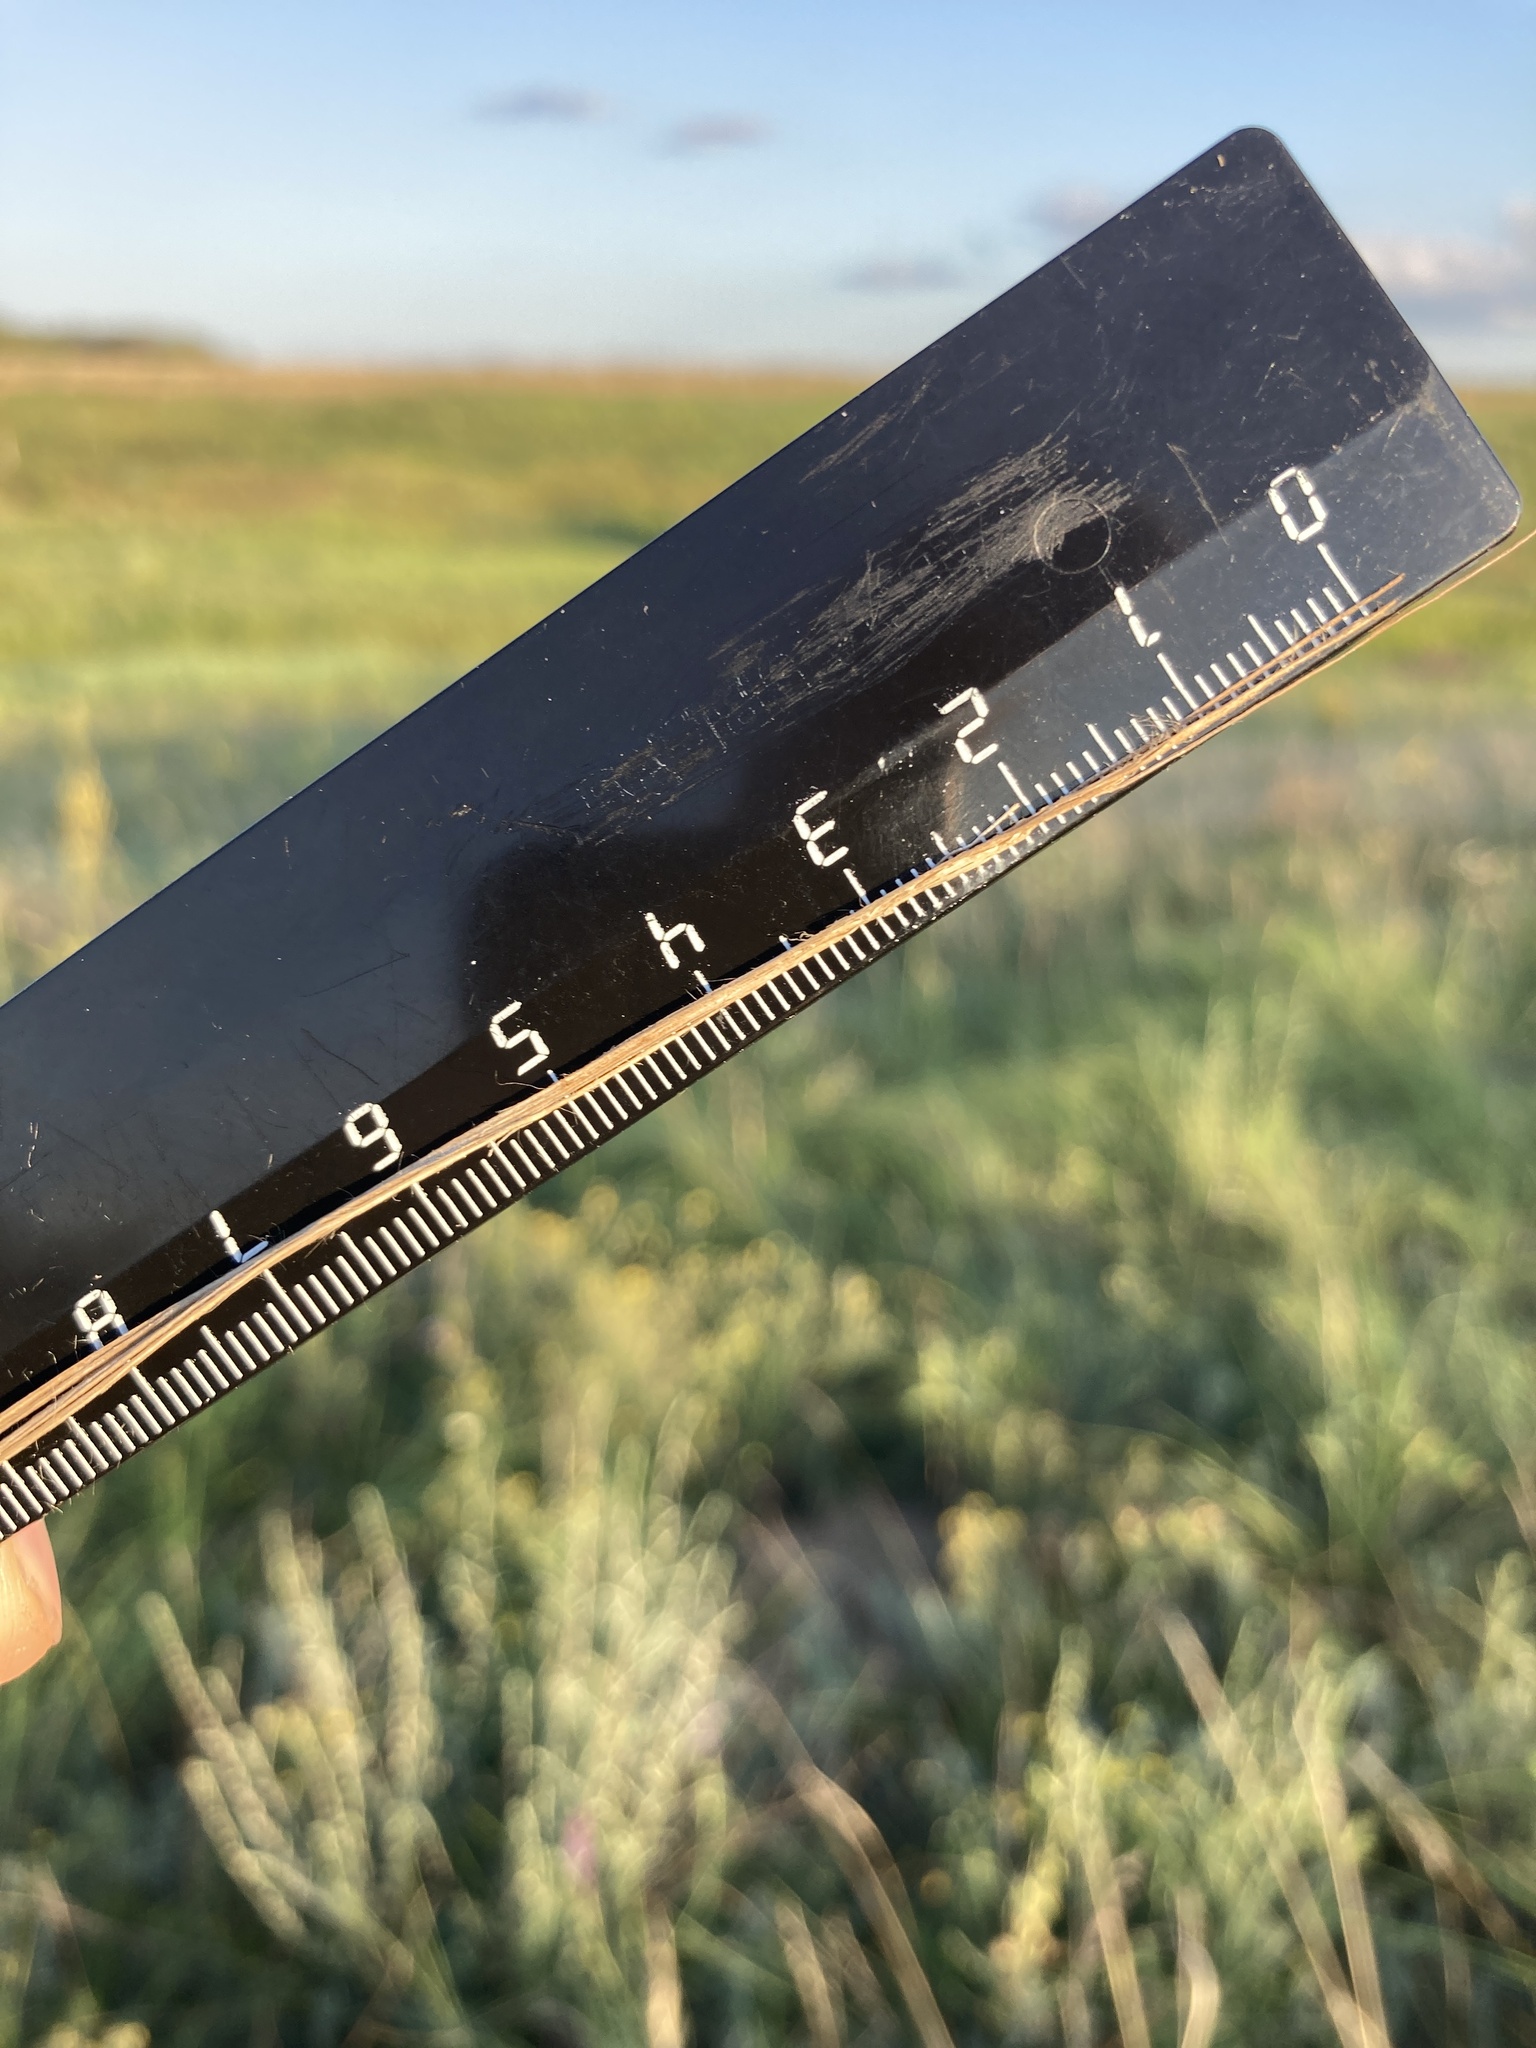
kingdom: Plantae
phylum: Tracheophyta
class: Liliopsida
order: Poales
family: Poaceae
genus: Stipa
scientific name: Stipa pennata
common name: European feather grass
